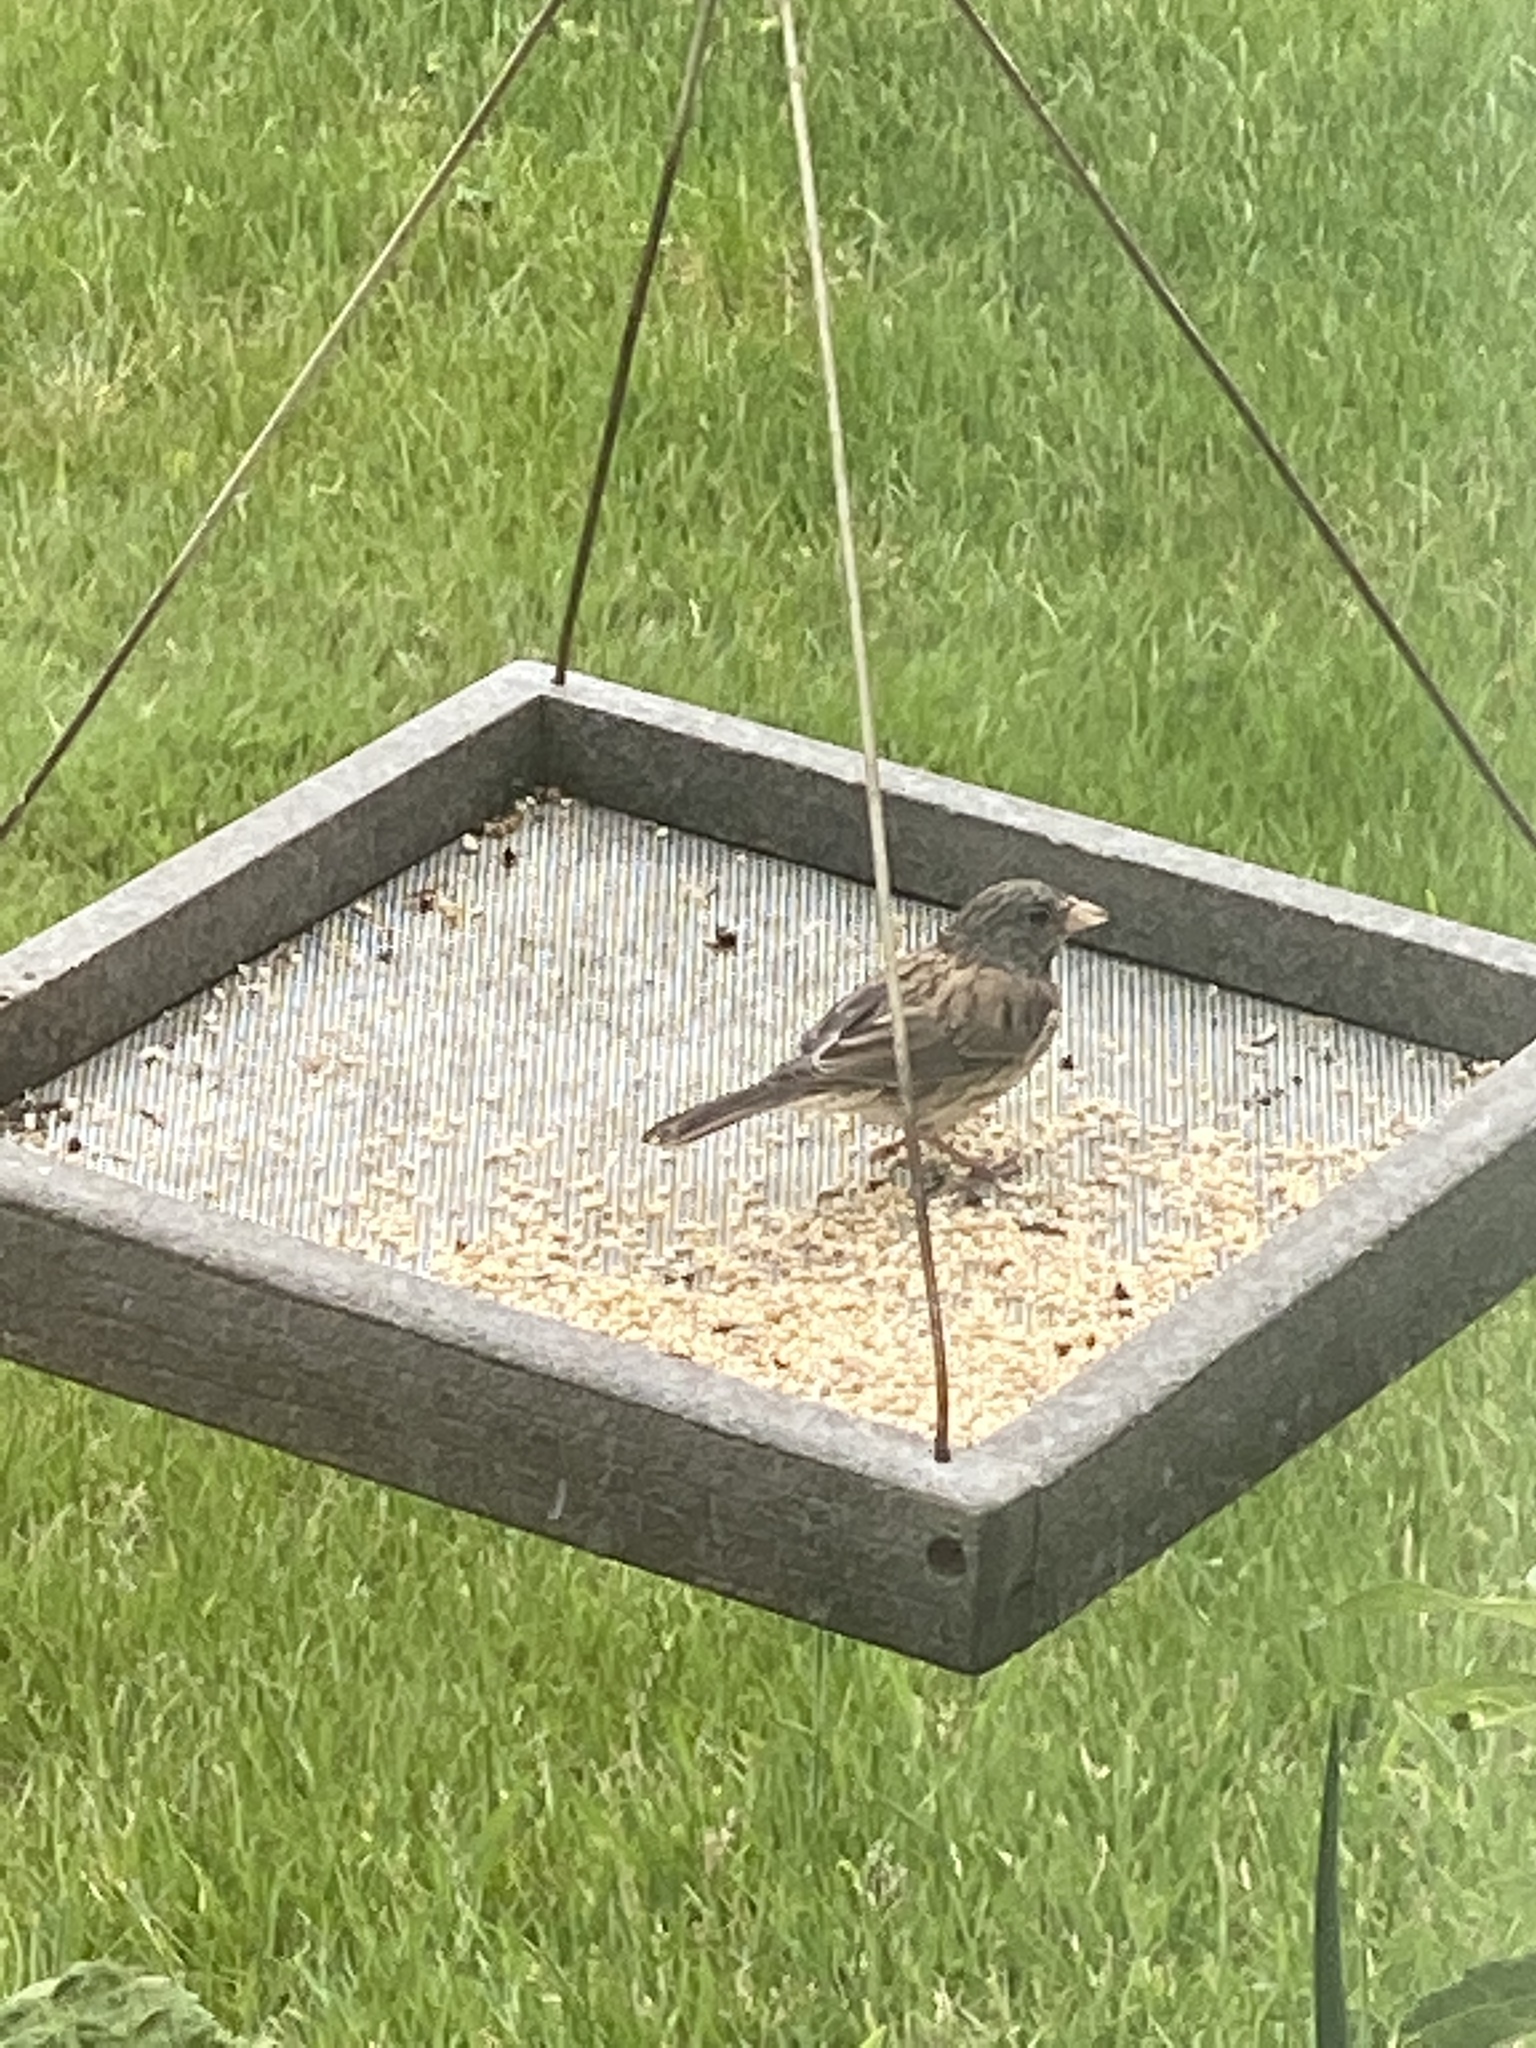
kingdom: Animalia
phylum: Chordata
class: Aves
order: Passeriformes
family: Passerellidae
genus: Junco
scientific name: Junco hyemalis
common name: Dark-eyed junco
